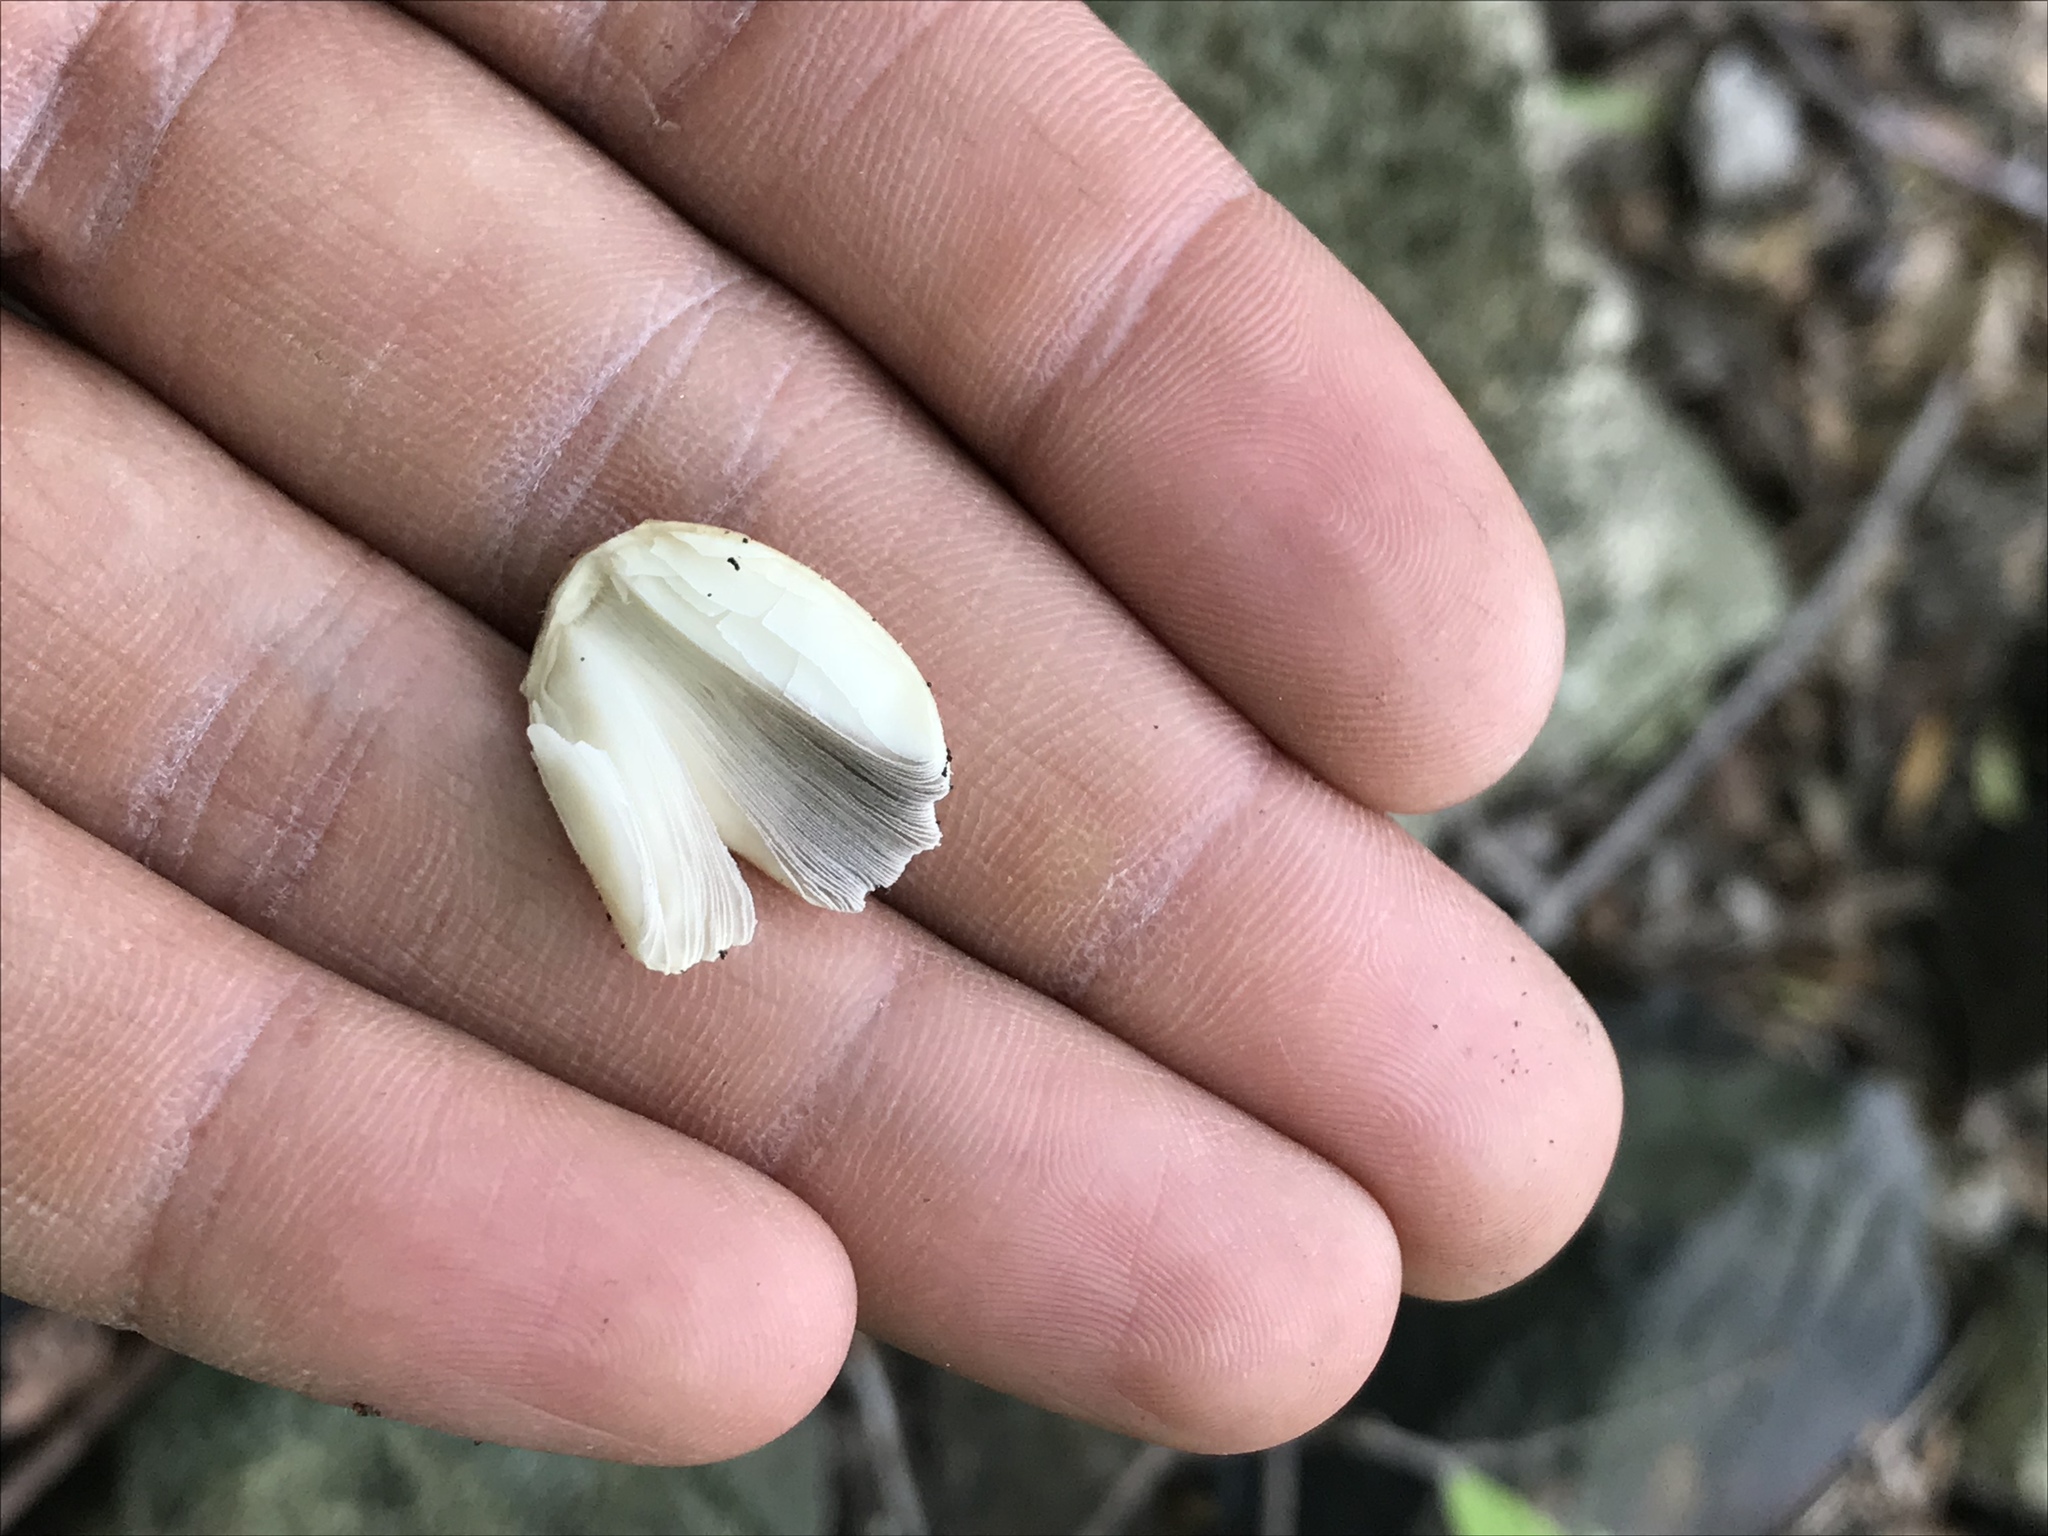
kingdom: Fungi
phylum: Basidiomycota
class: Agaricomycetes
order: Agaricales
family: Psathyrellaceae
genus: Coprinellus
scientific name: Coprinellus micaceus
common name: Glistening ink-cap
